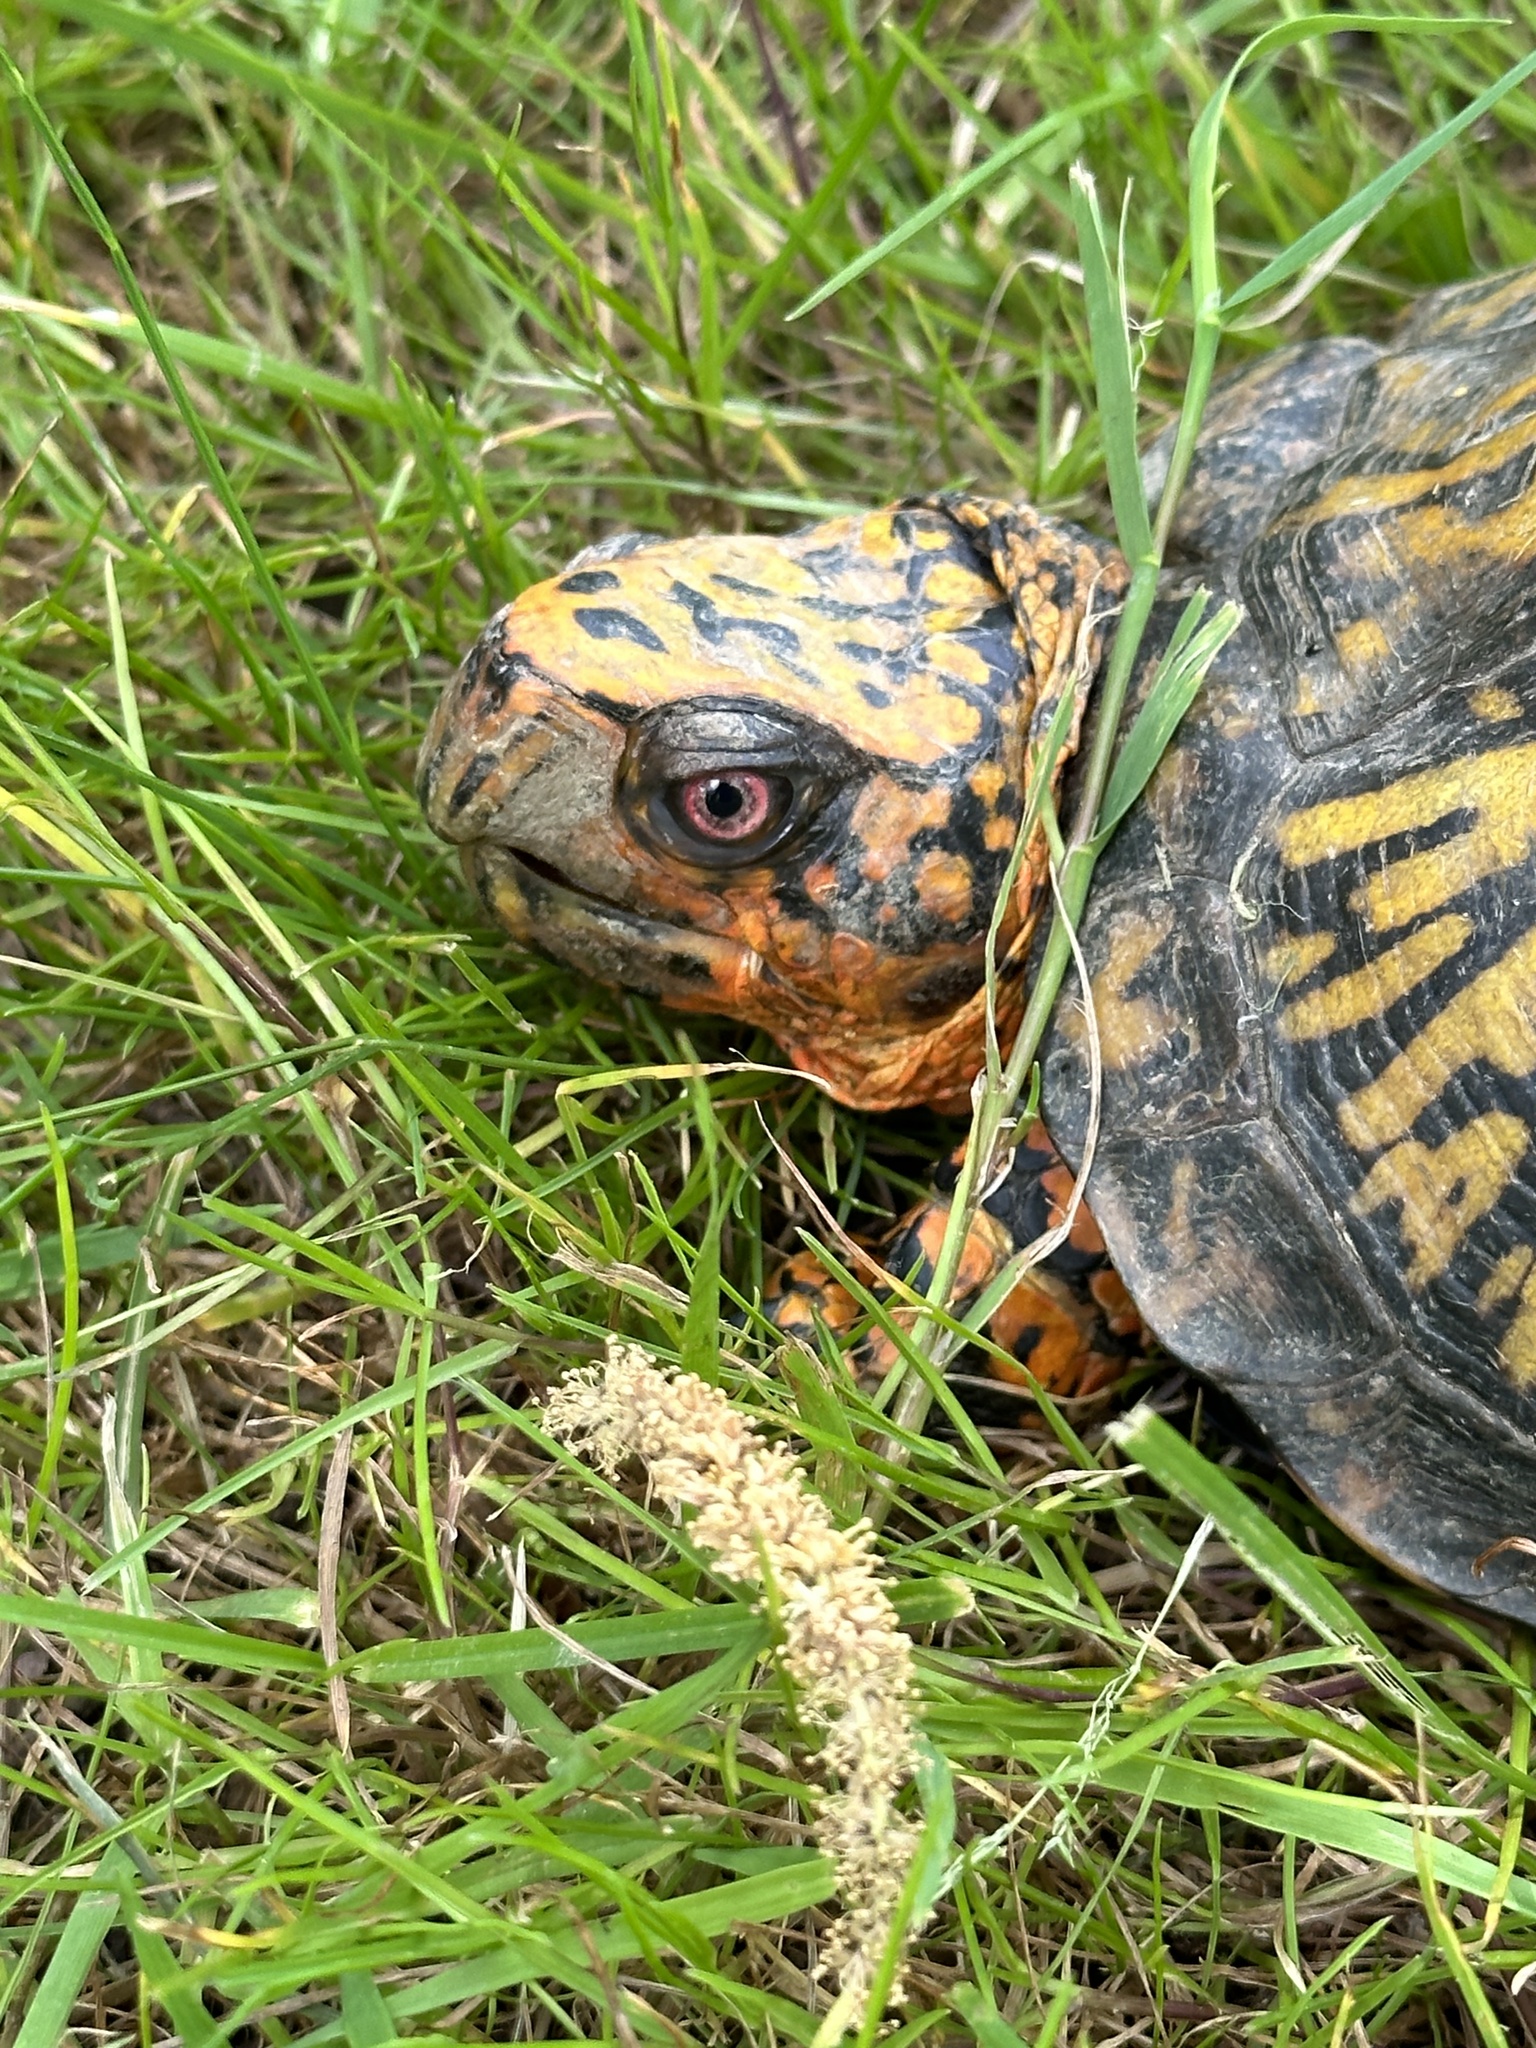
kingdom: Animalia
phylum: Chordata
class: Testudines
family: Emydidae
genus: Terrapene
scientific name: Terrapene carolina
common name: Common box turtle
